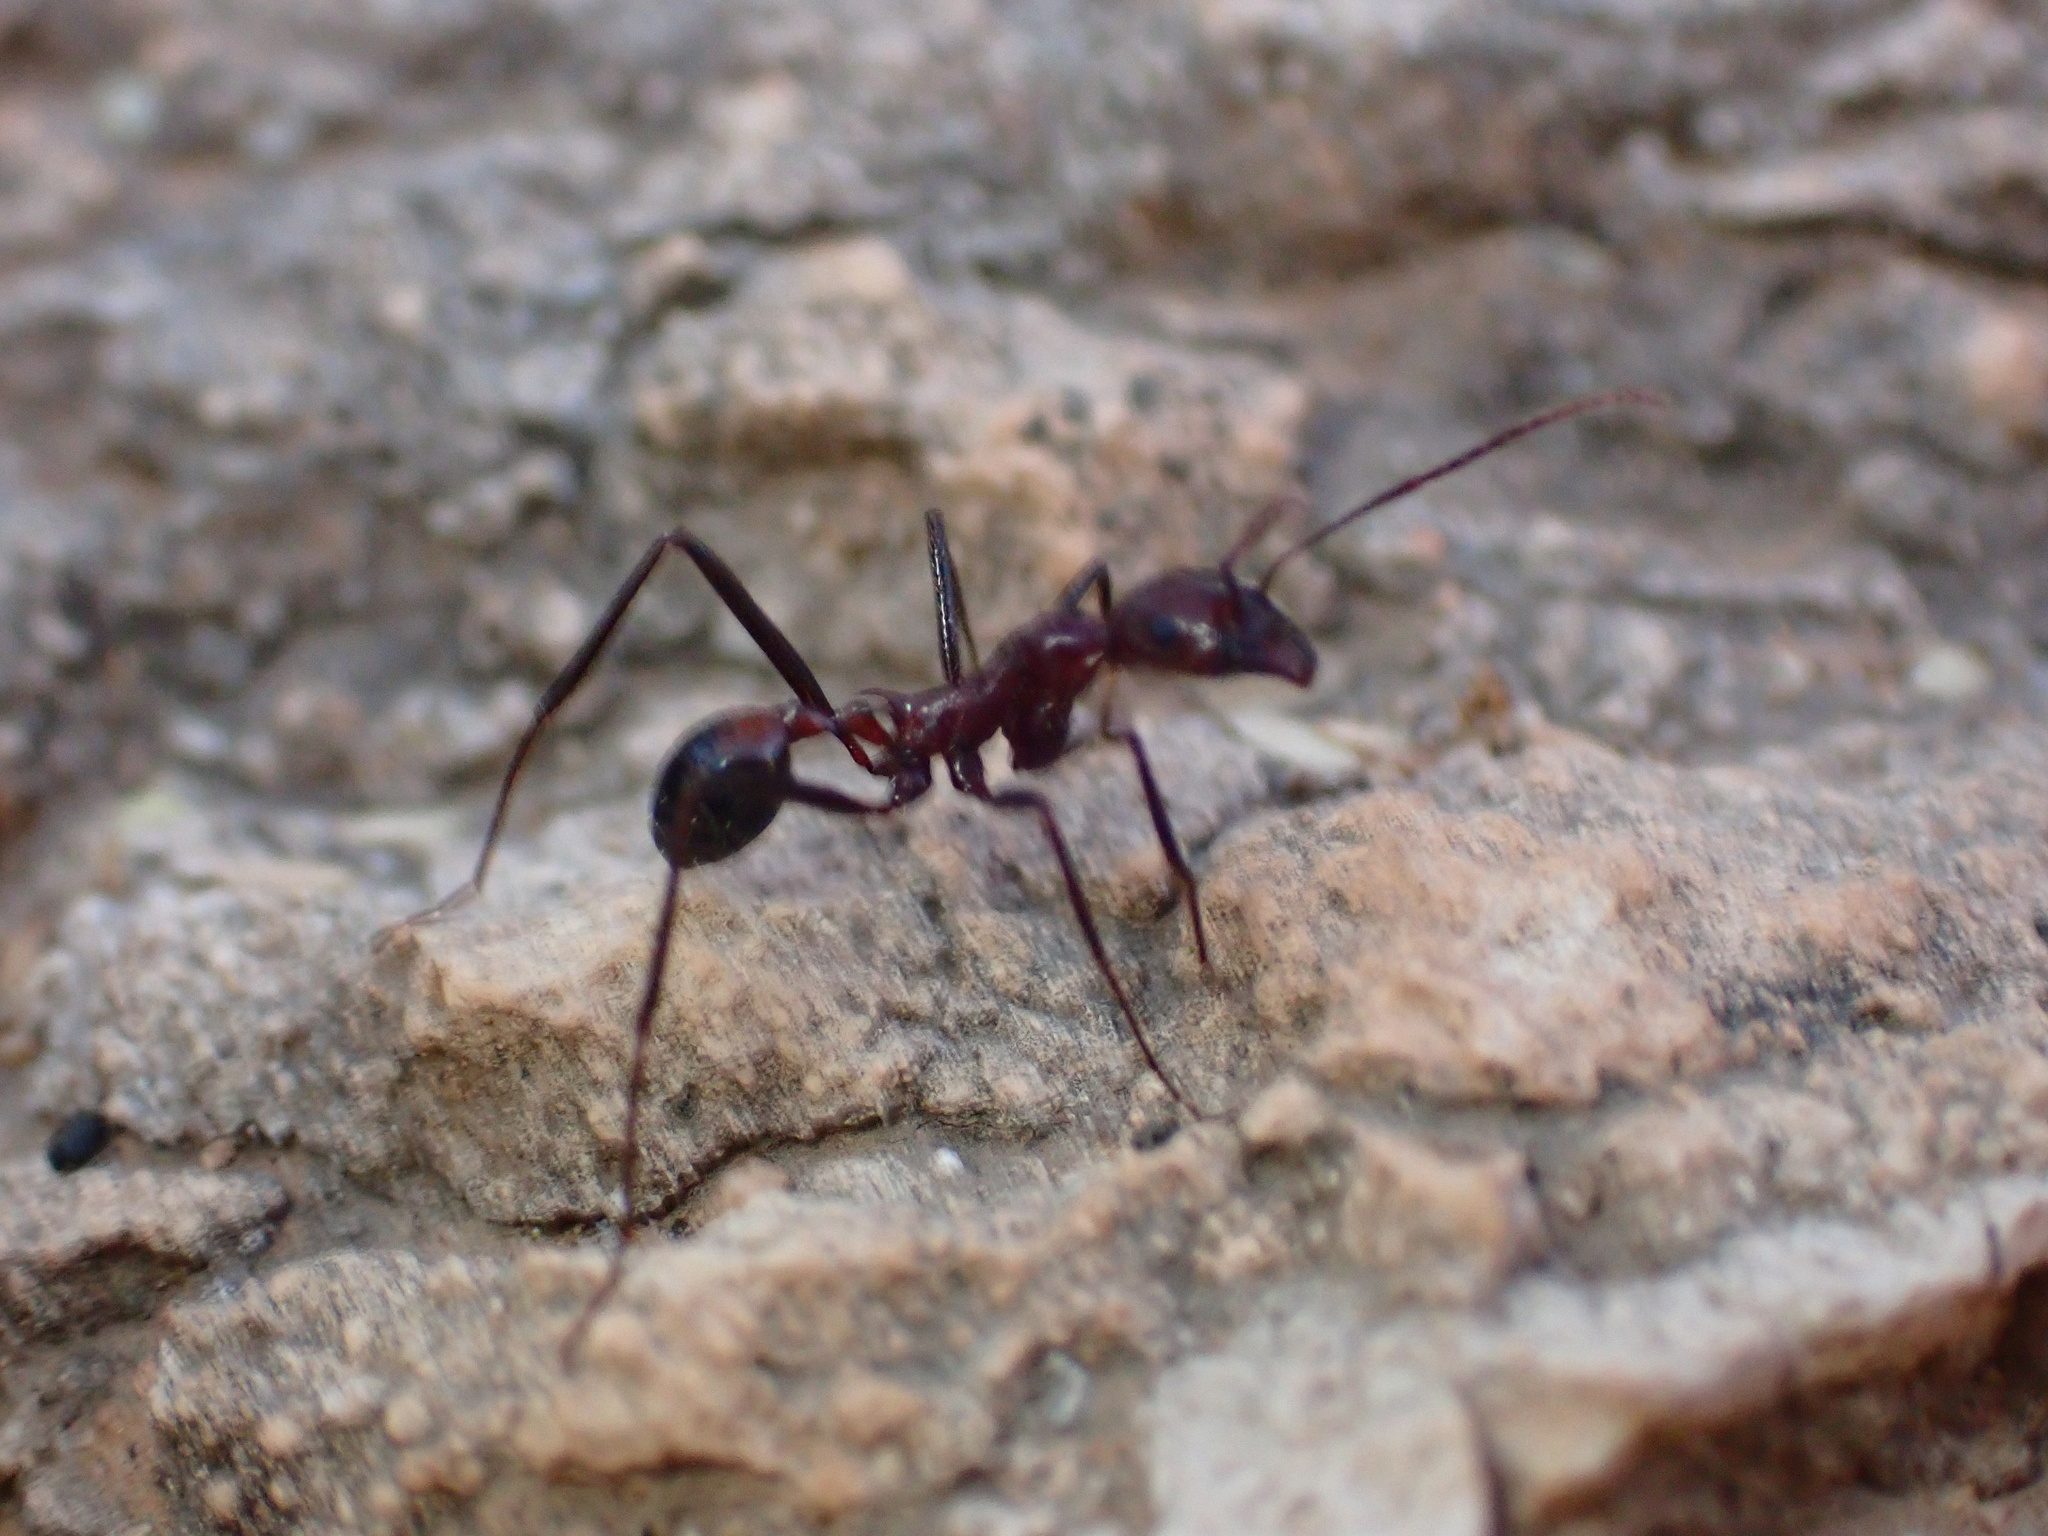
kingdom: Animalia
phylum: Arthropoda
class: Insecta
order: Hymenoptera
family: Formicidae
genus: Novomessor
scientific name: Novomessor cockerelli
